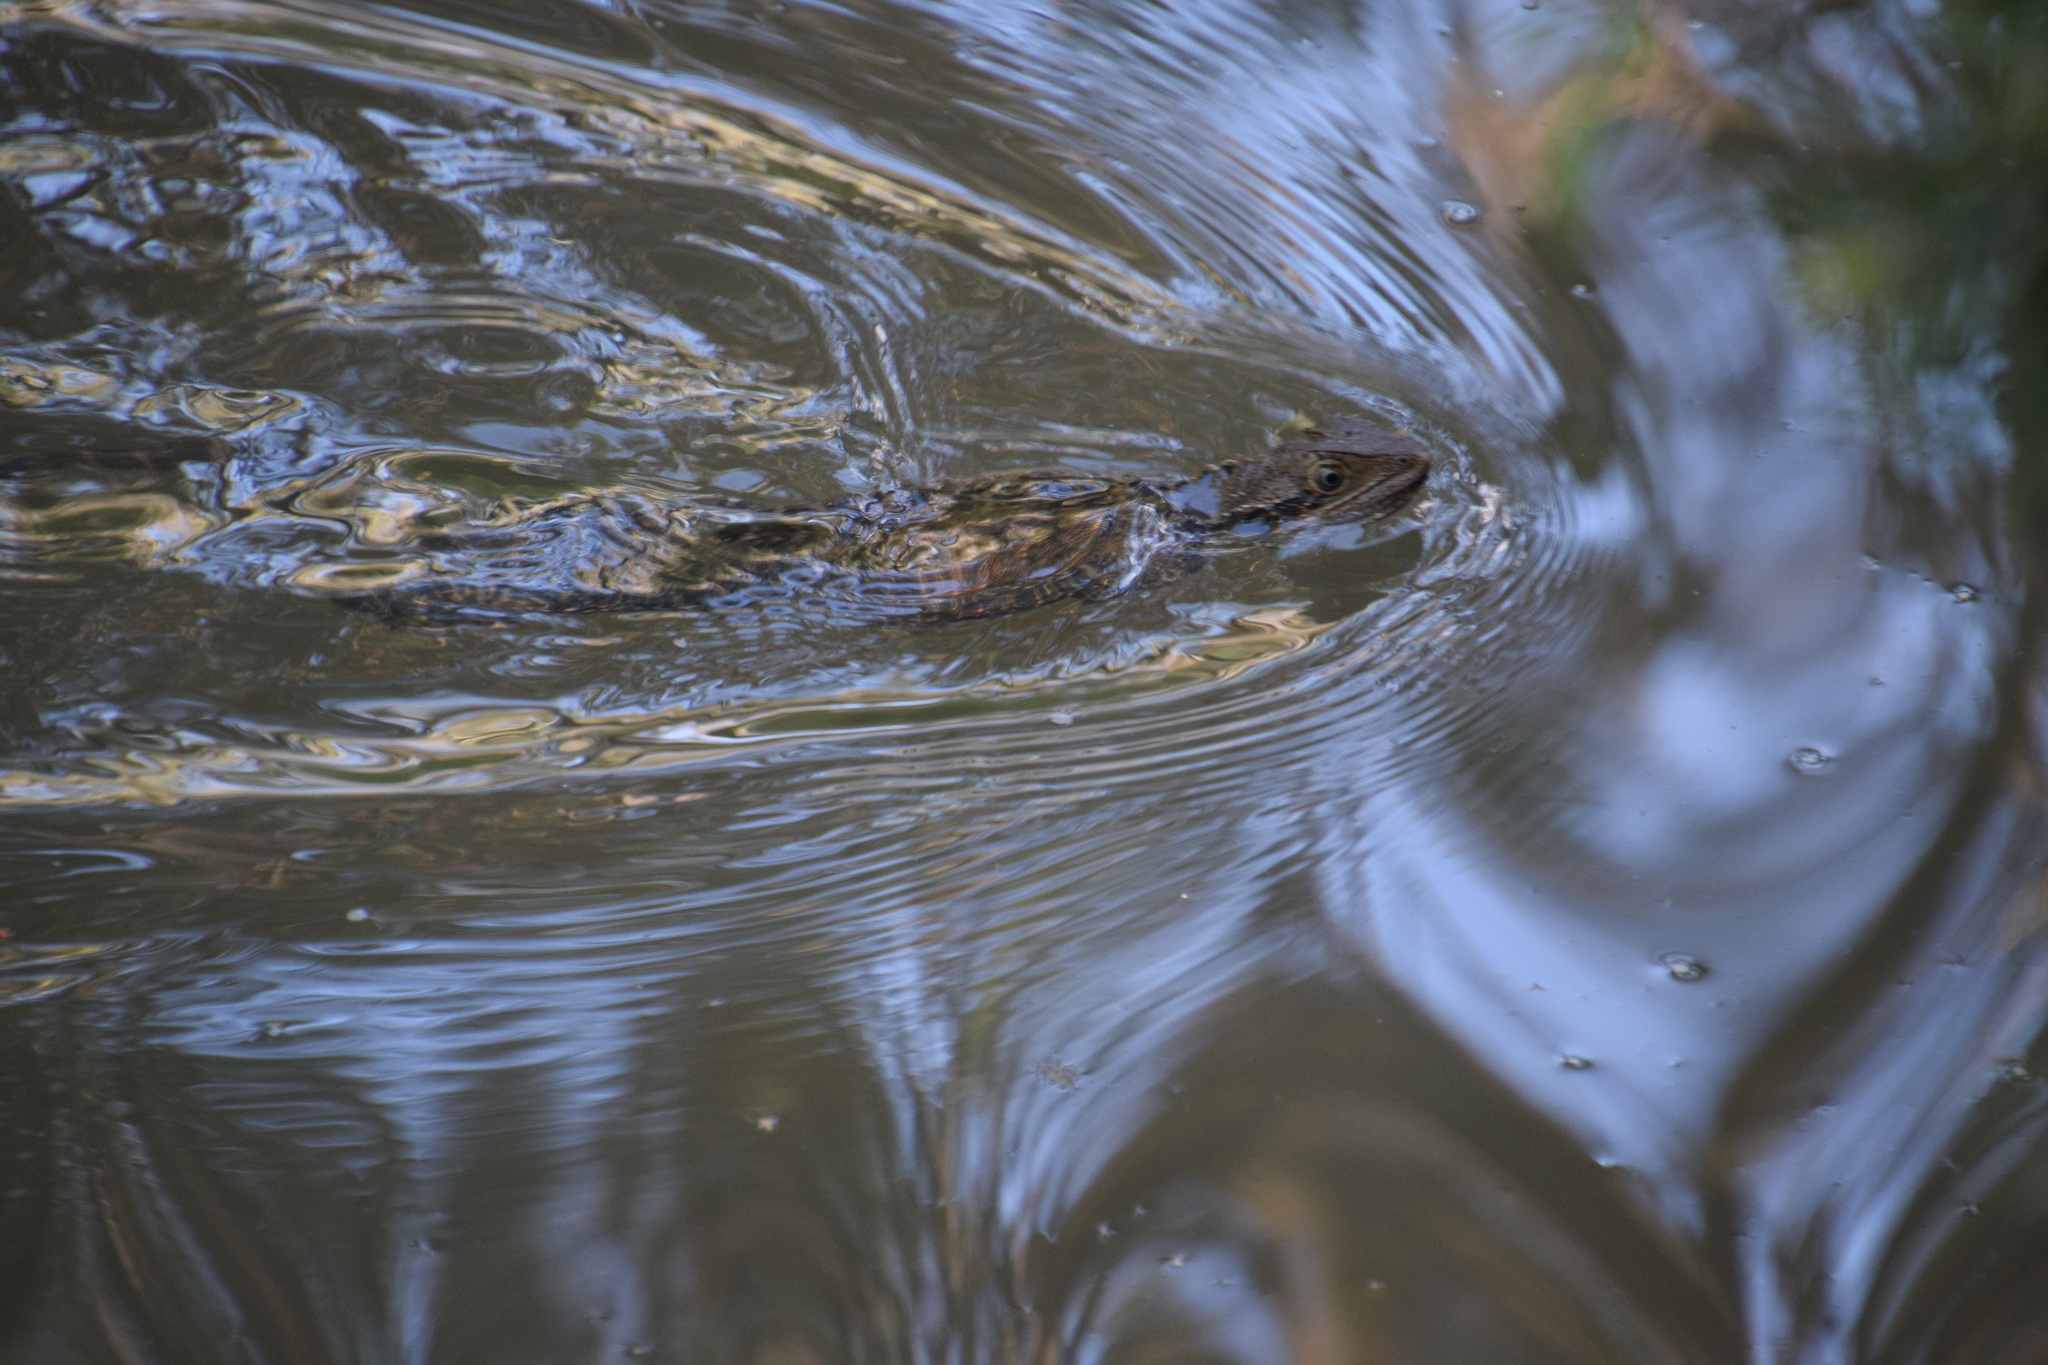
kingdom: Animalia
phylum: Chordata
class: Squamata
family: Agamidae
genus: Intellagama
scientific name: Intellagama lesueurii
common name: Eastern water dragon
